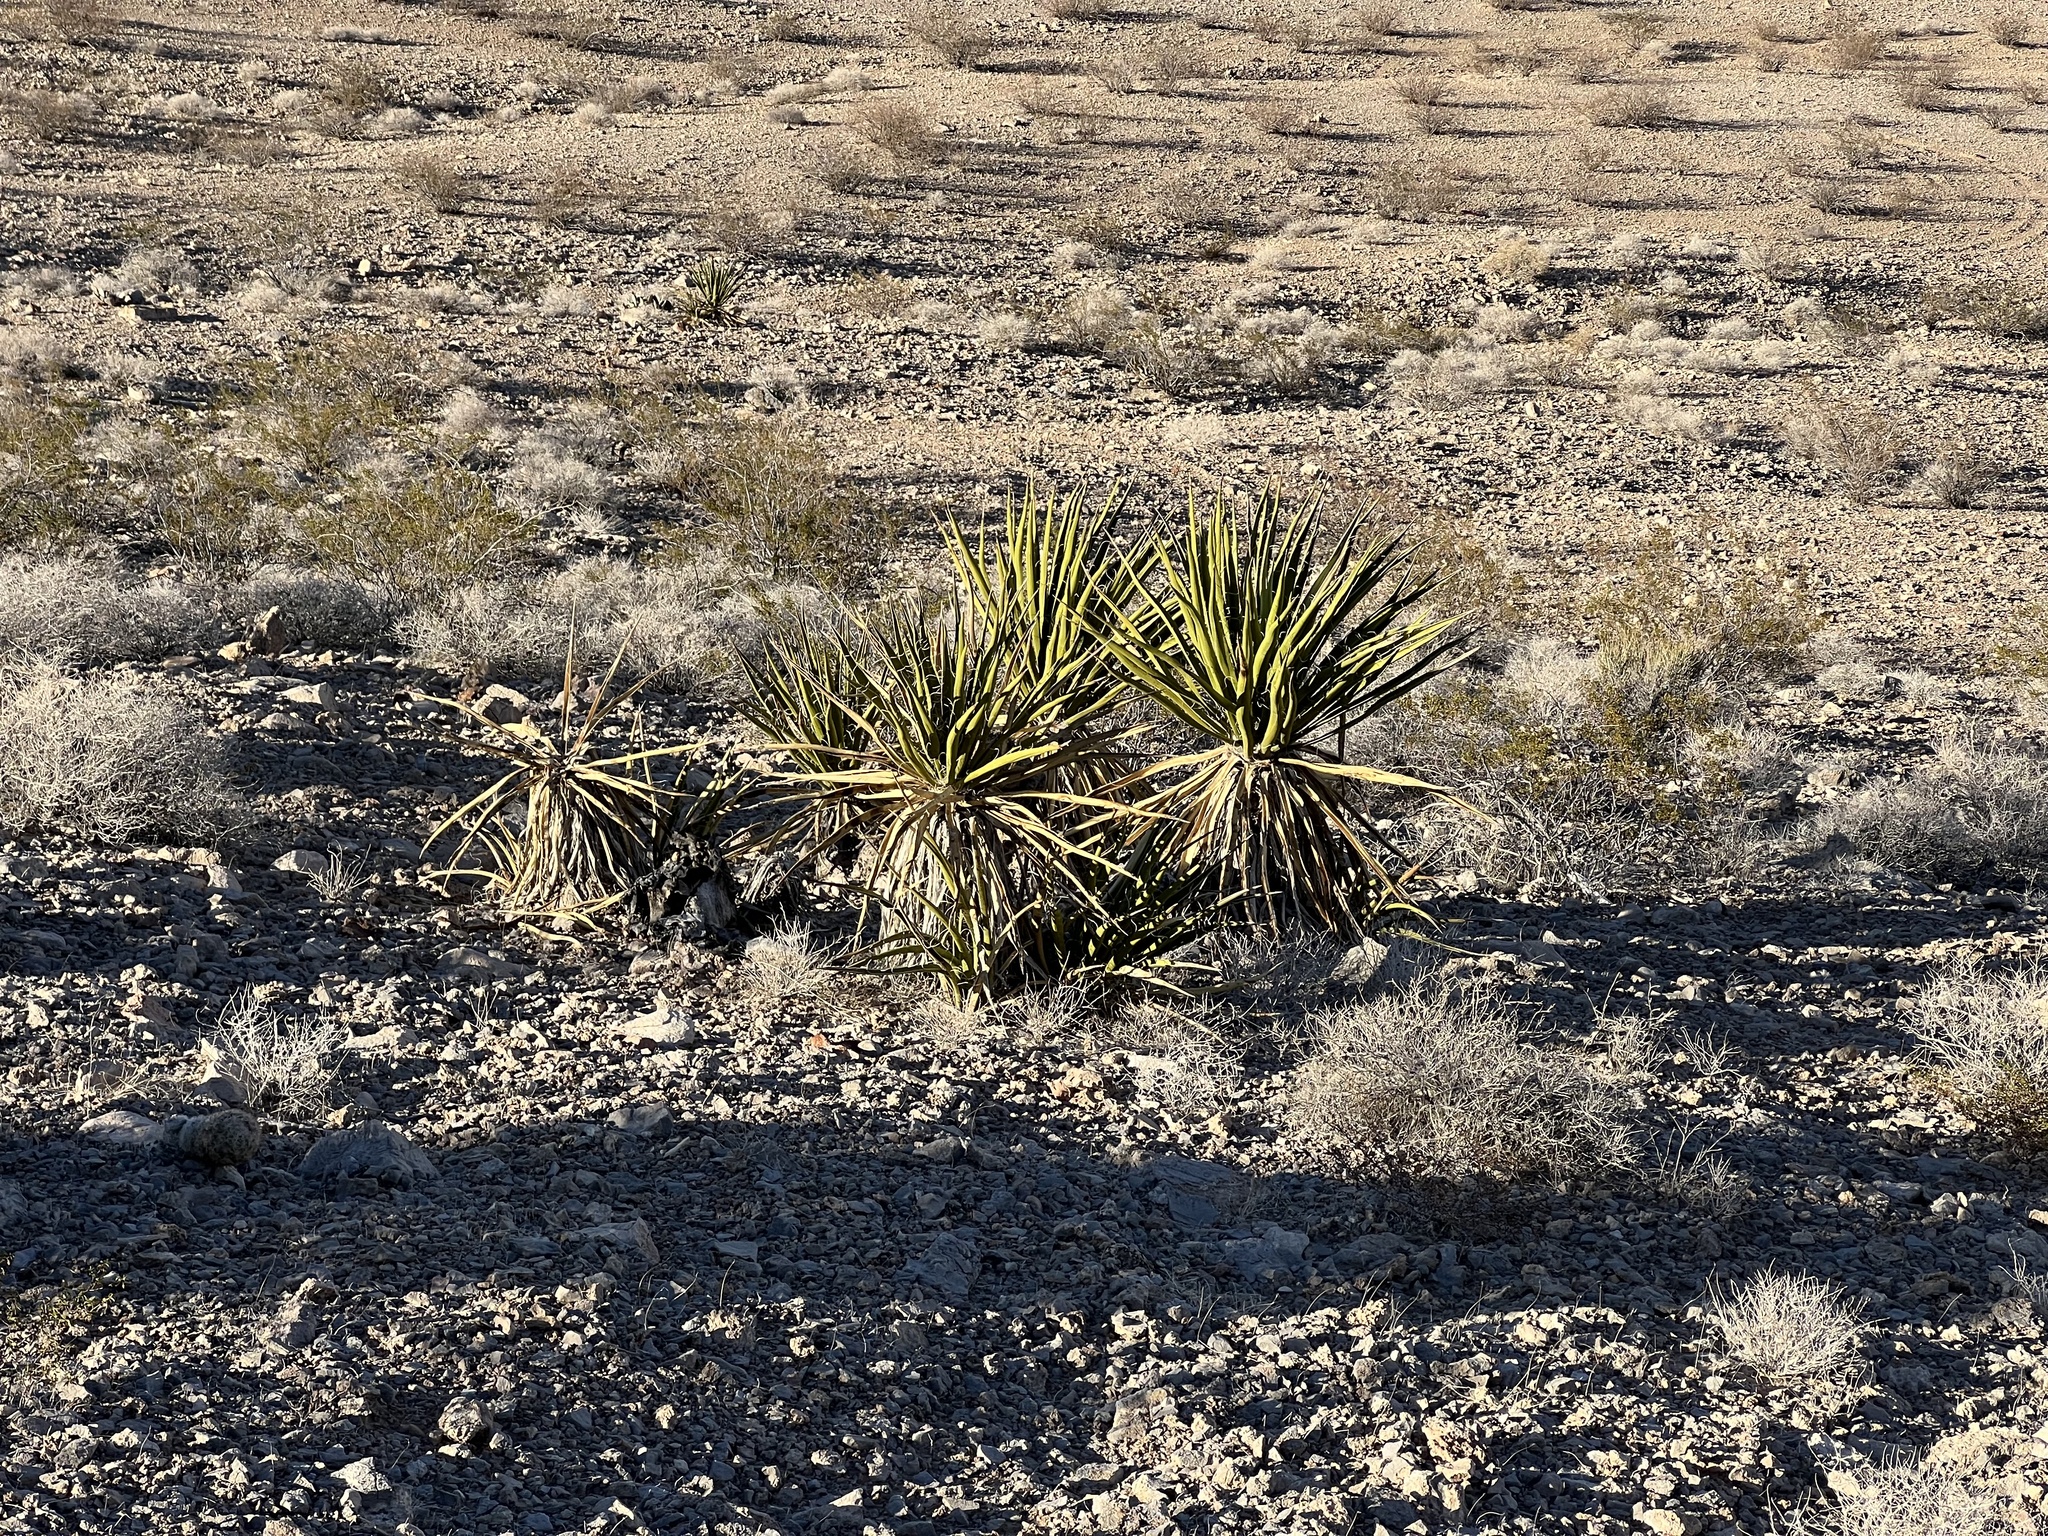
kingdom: Plantae
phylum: Tracheophyta
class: Liliopsida
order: Asparagales
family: Asparagaceae
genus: Yucca
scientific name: Yucca schidigera
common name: Mojave yucca
